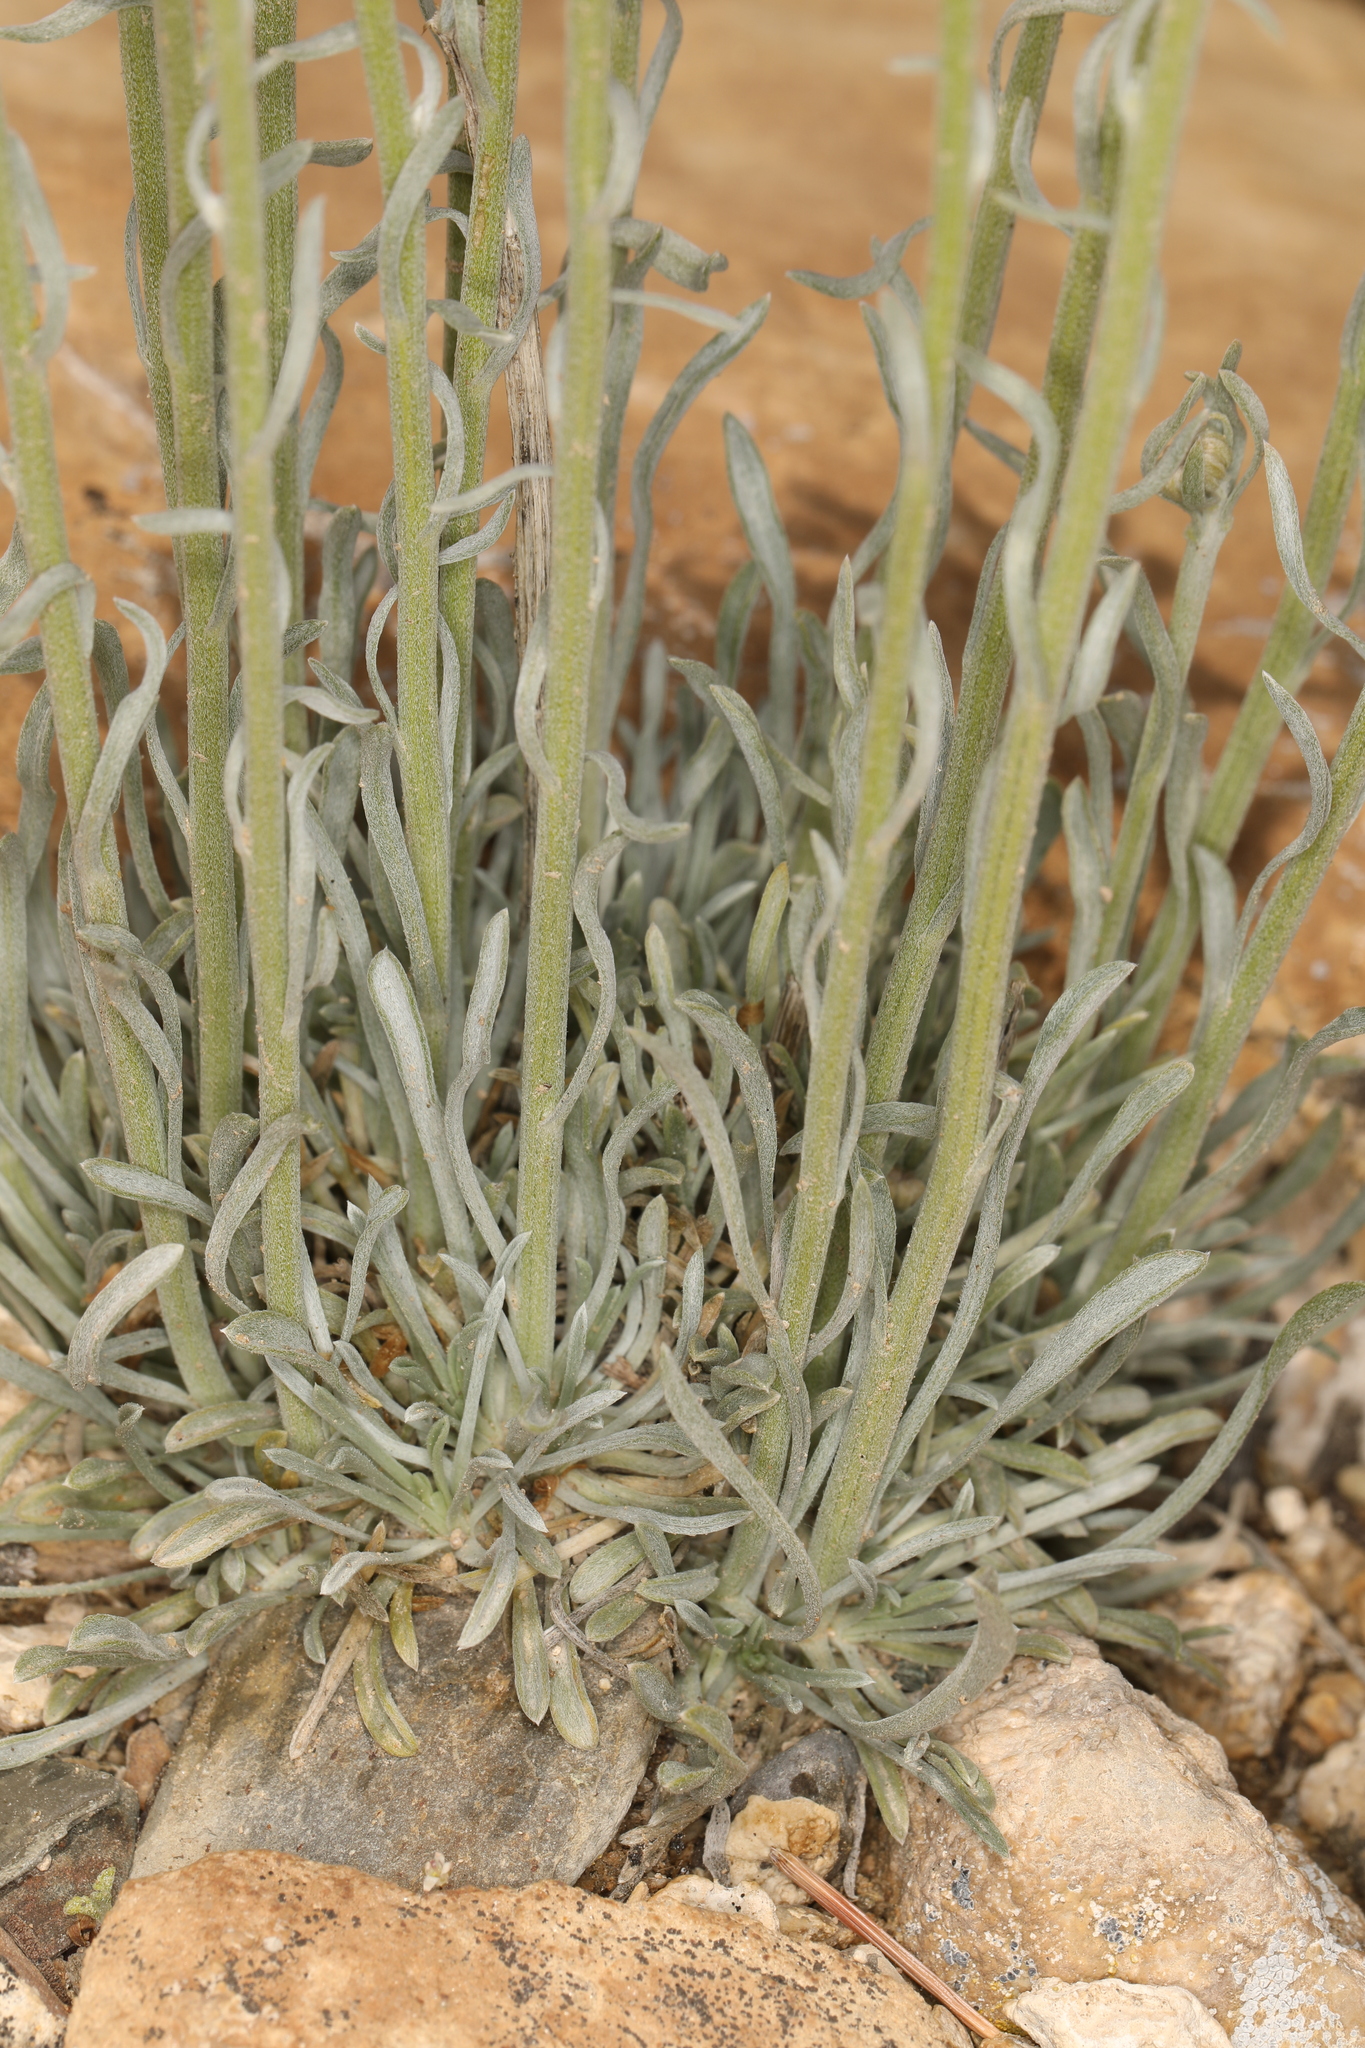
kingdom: Plantae
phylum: Tracheophyta
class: Magnoliopsida
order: Asterales
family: Asteraceae
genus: Erigeron
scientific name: Erigeron argentatus
